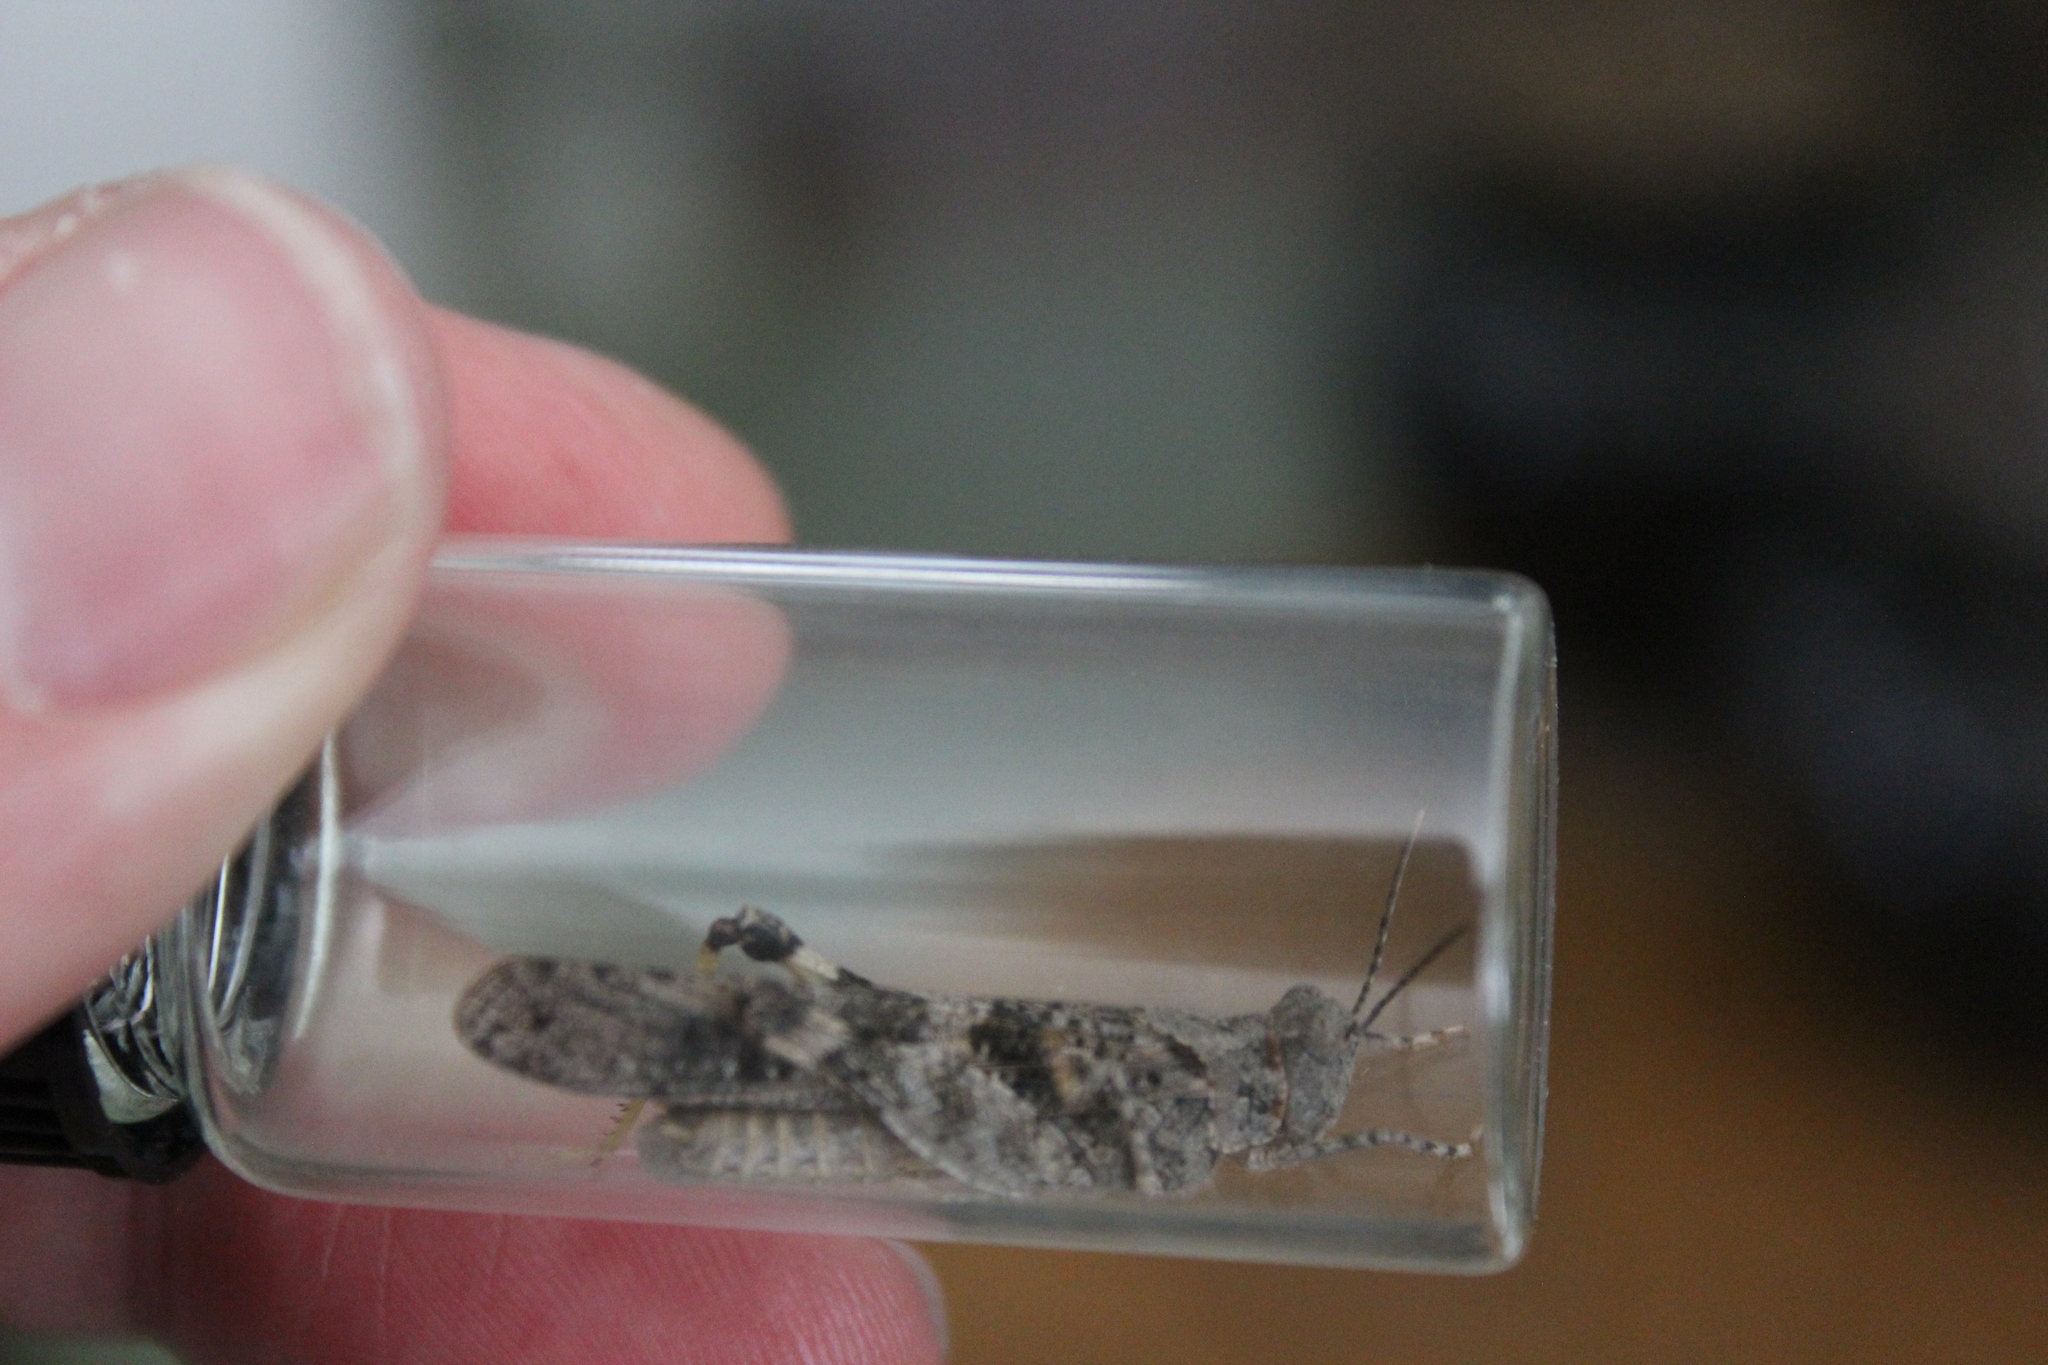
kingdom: Animalia
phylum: Arthropoda
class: Insecta
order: Orthoptera
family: Acrididae
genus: Trimerotropis
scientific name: Trimerotropis pallidipennis
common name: Pallid-winged grasshopper
